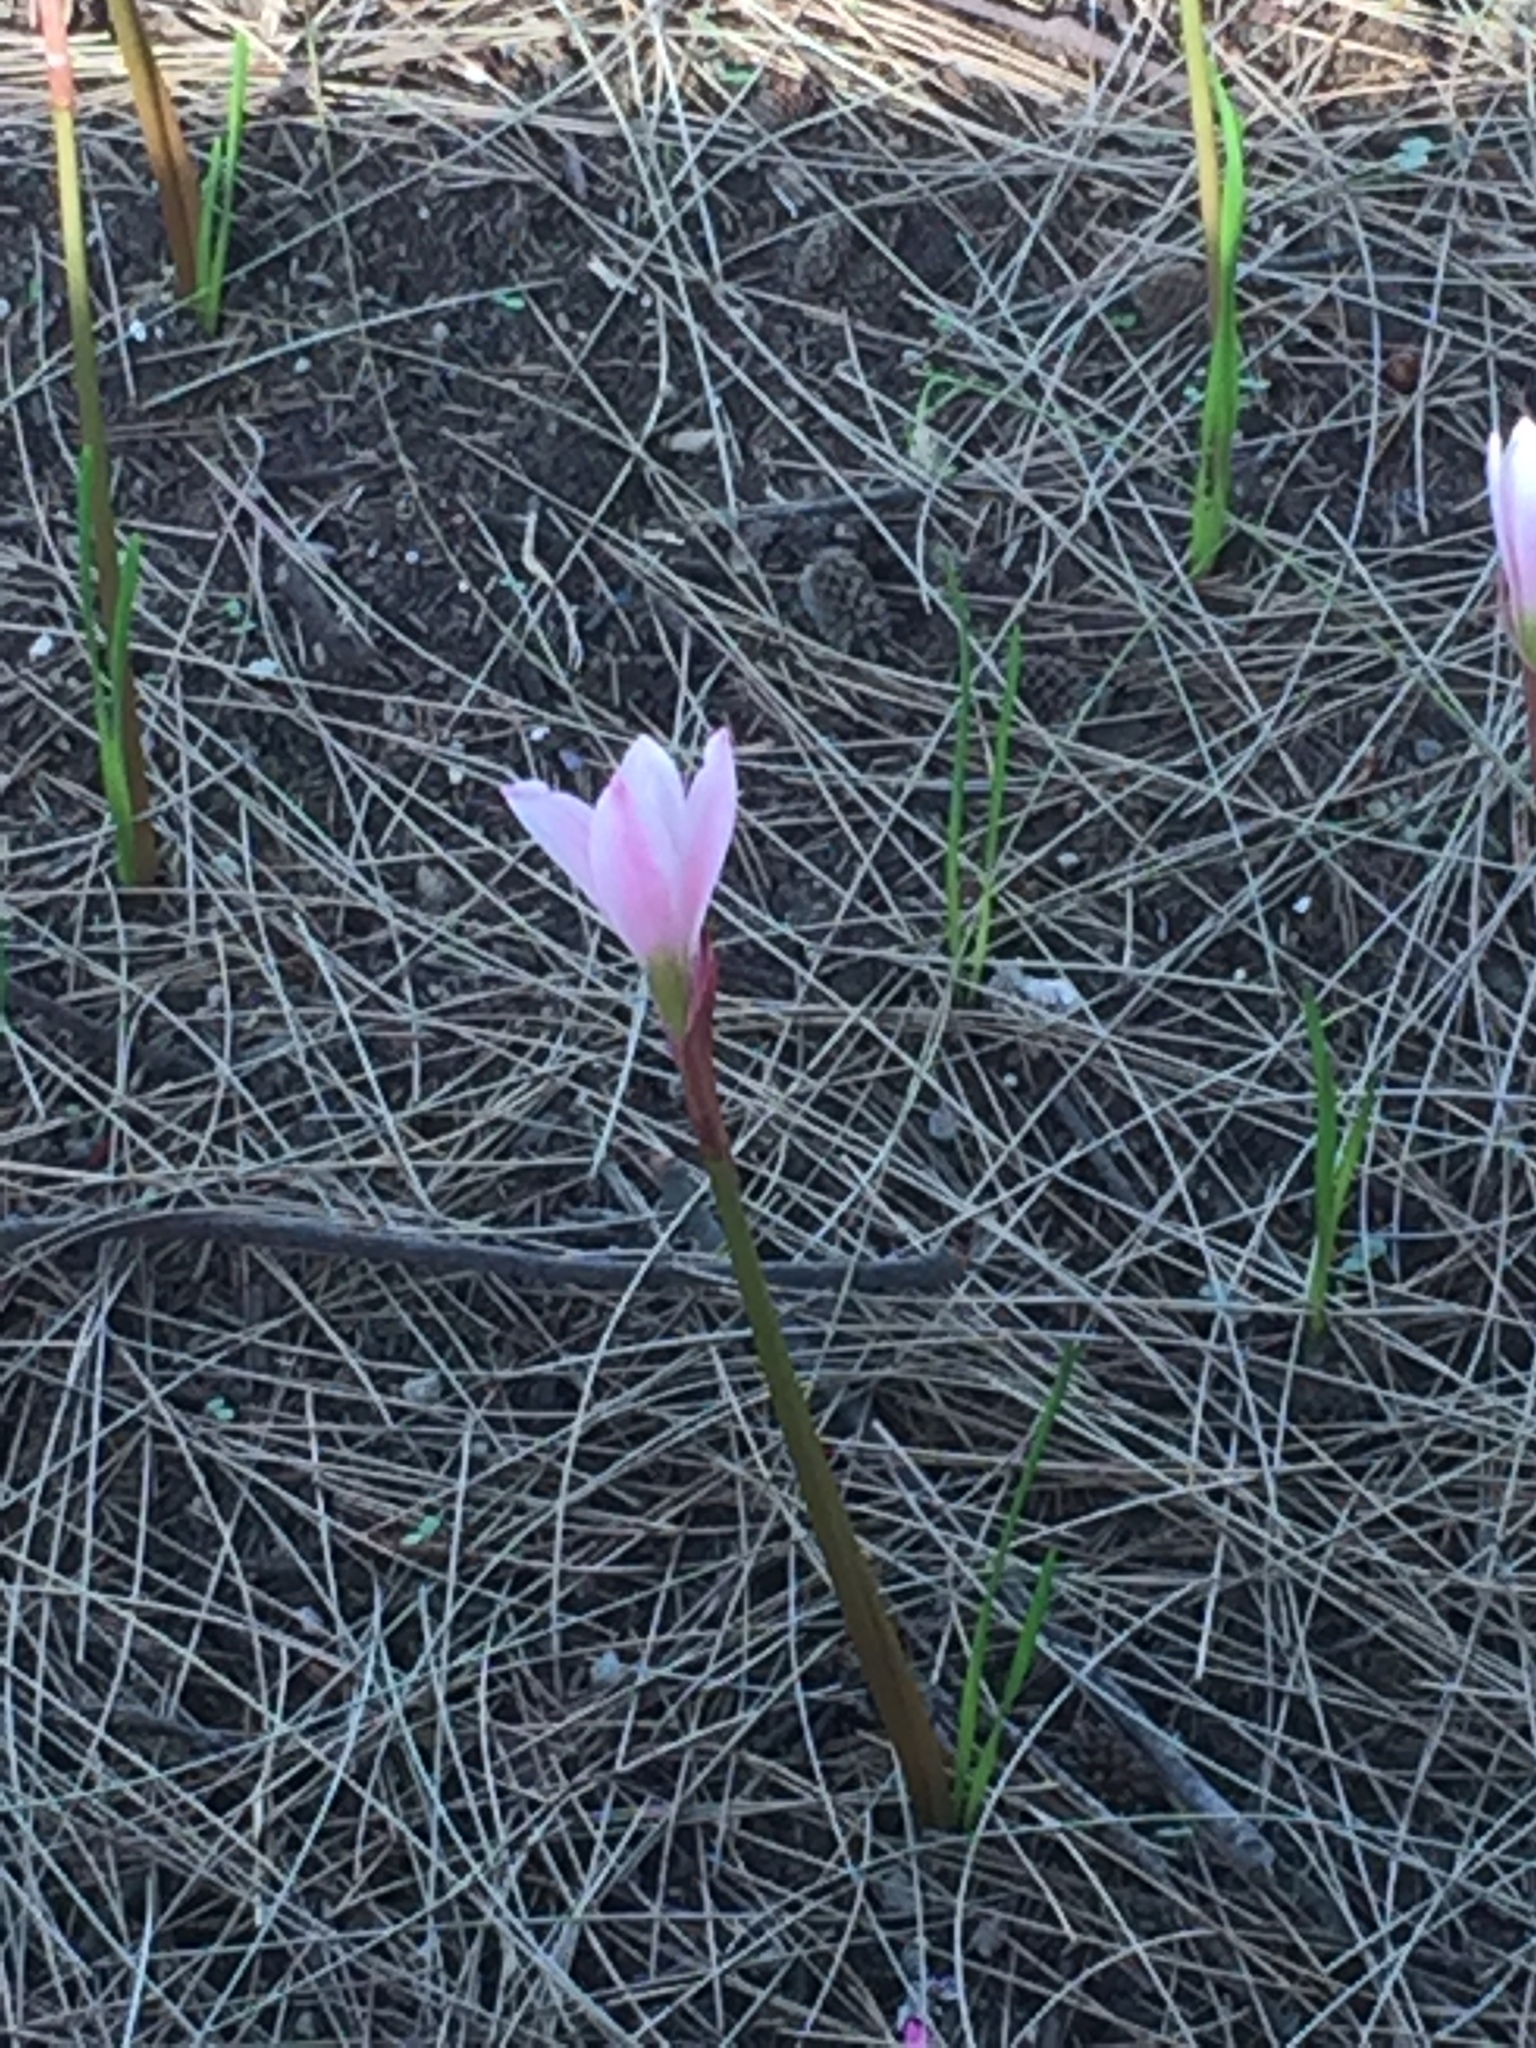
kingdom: Plantae
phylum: Tracheophyta
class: Liliopsida
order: Asparagales
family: Amaryllidaceae
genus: Zephyranthes
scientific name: Zephyranthes fosteri
